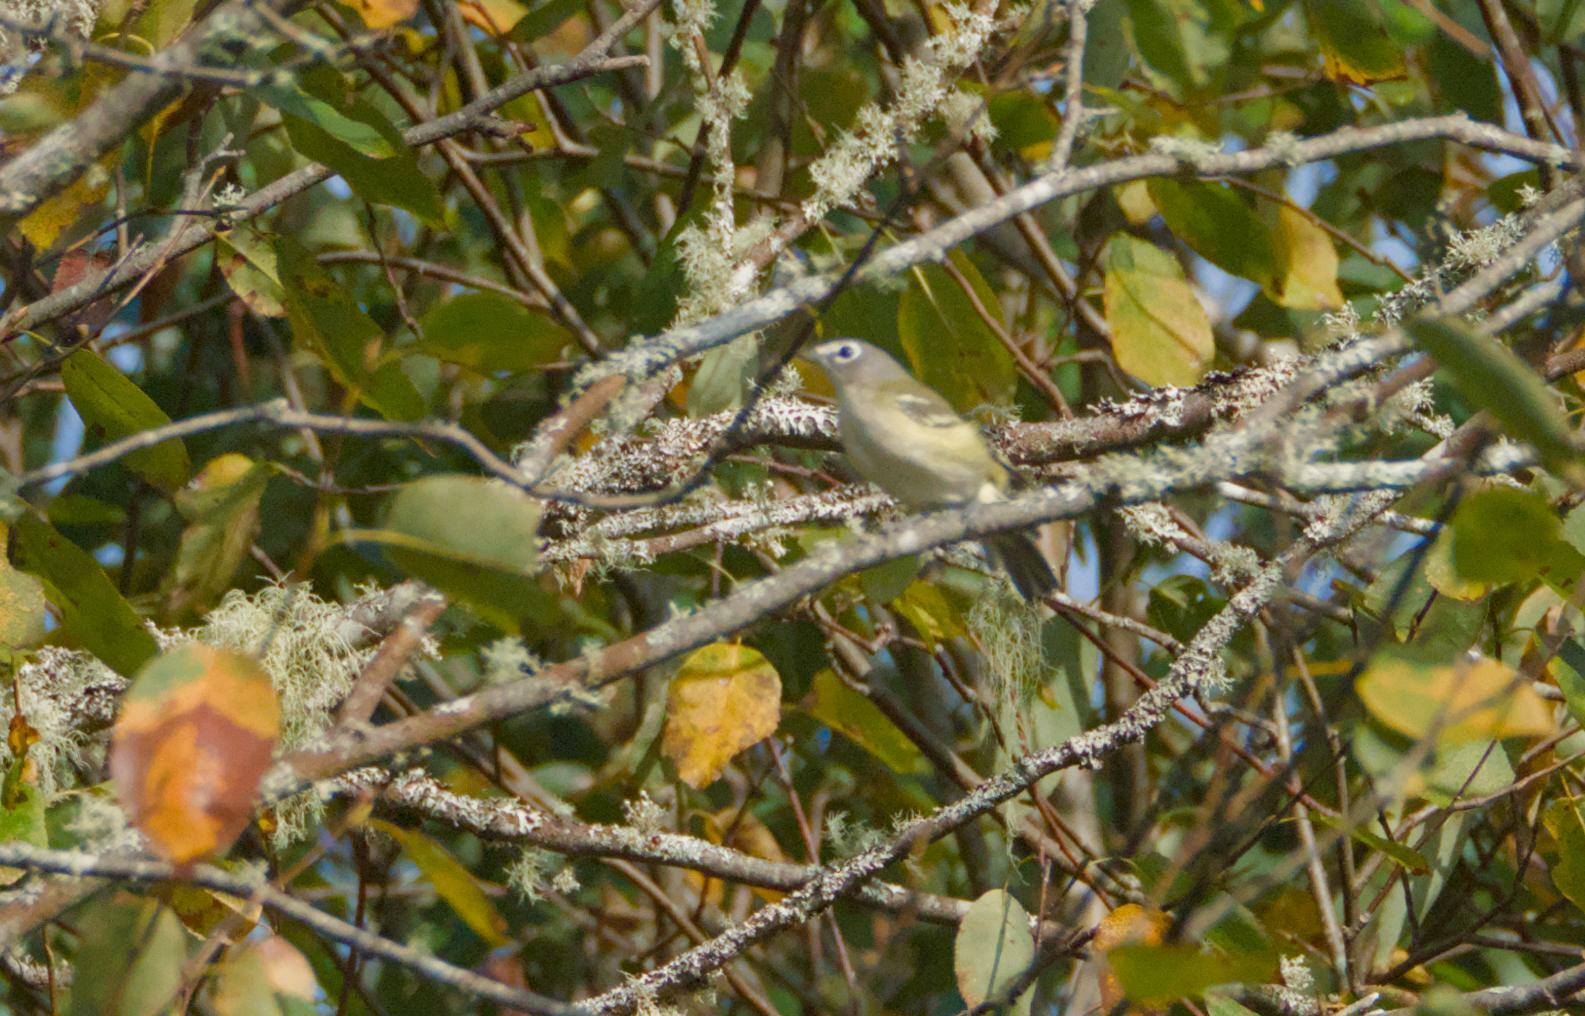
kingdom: Animalia
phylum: Chordata
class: Aves
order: Passeriformes
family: Vireonidae
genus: Vireo
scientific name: Vireo solitarius
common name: Blue-headed vireo
